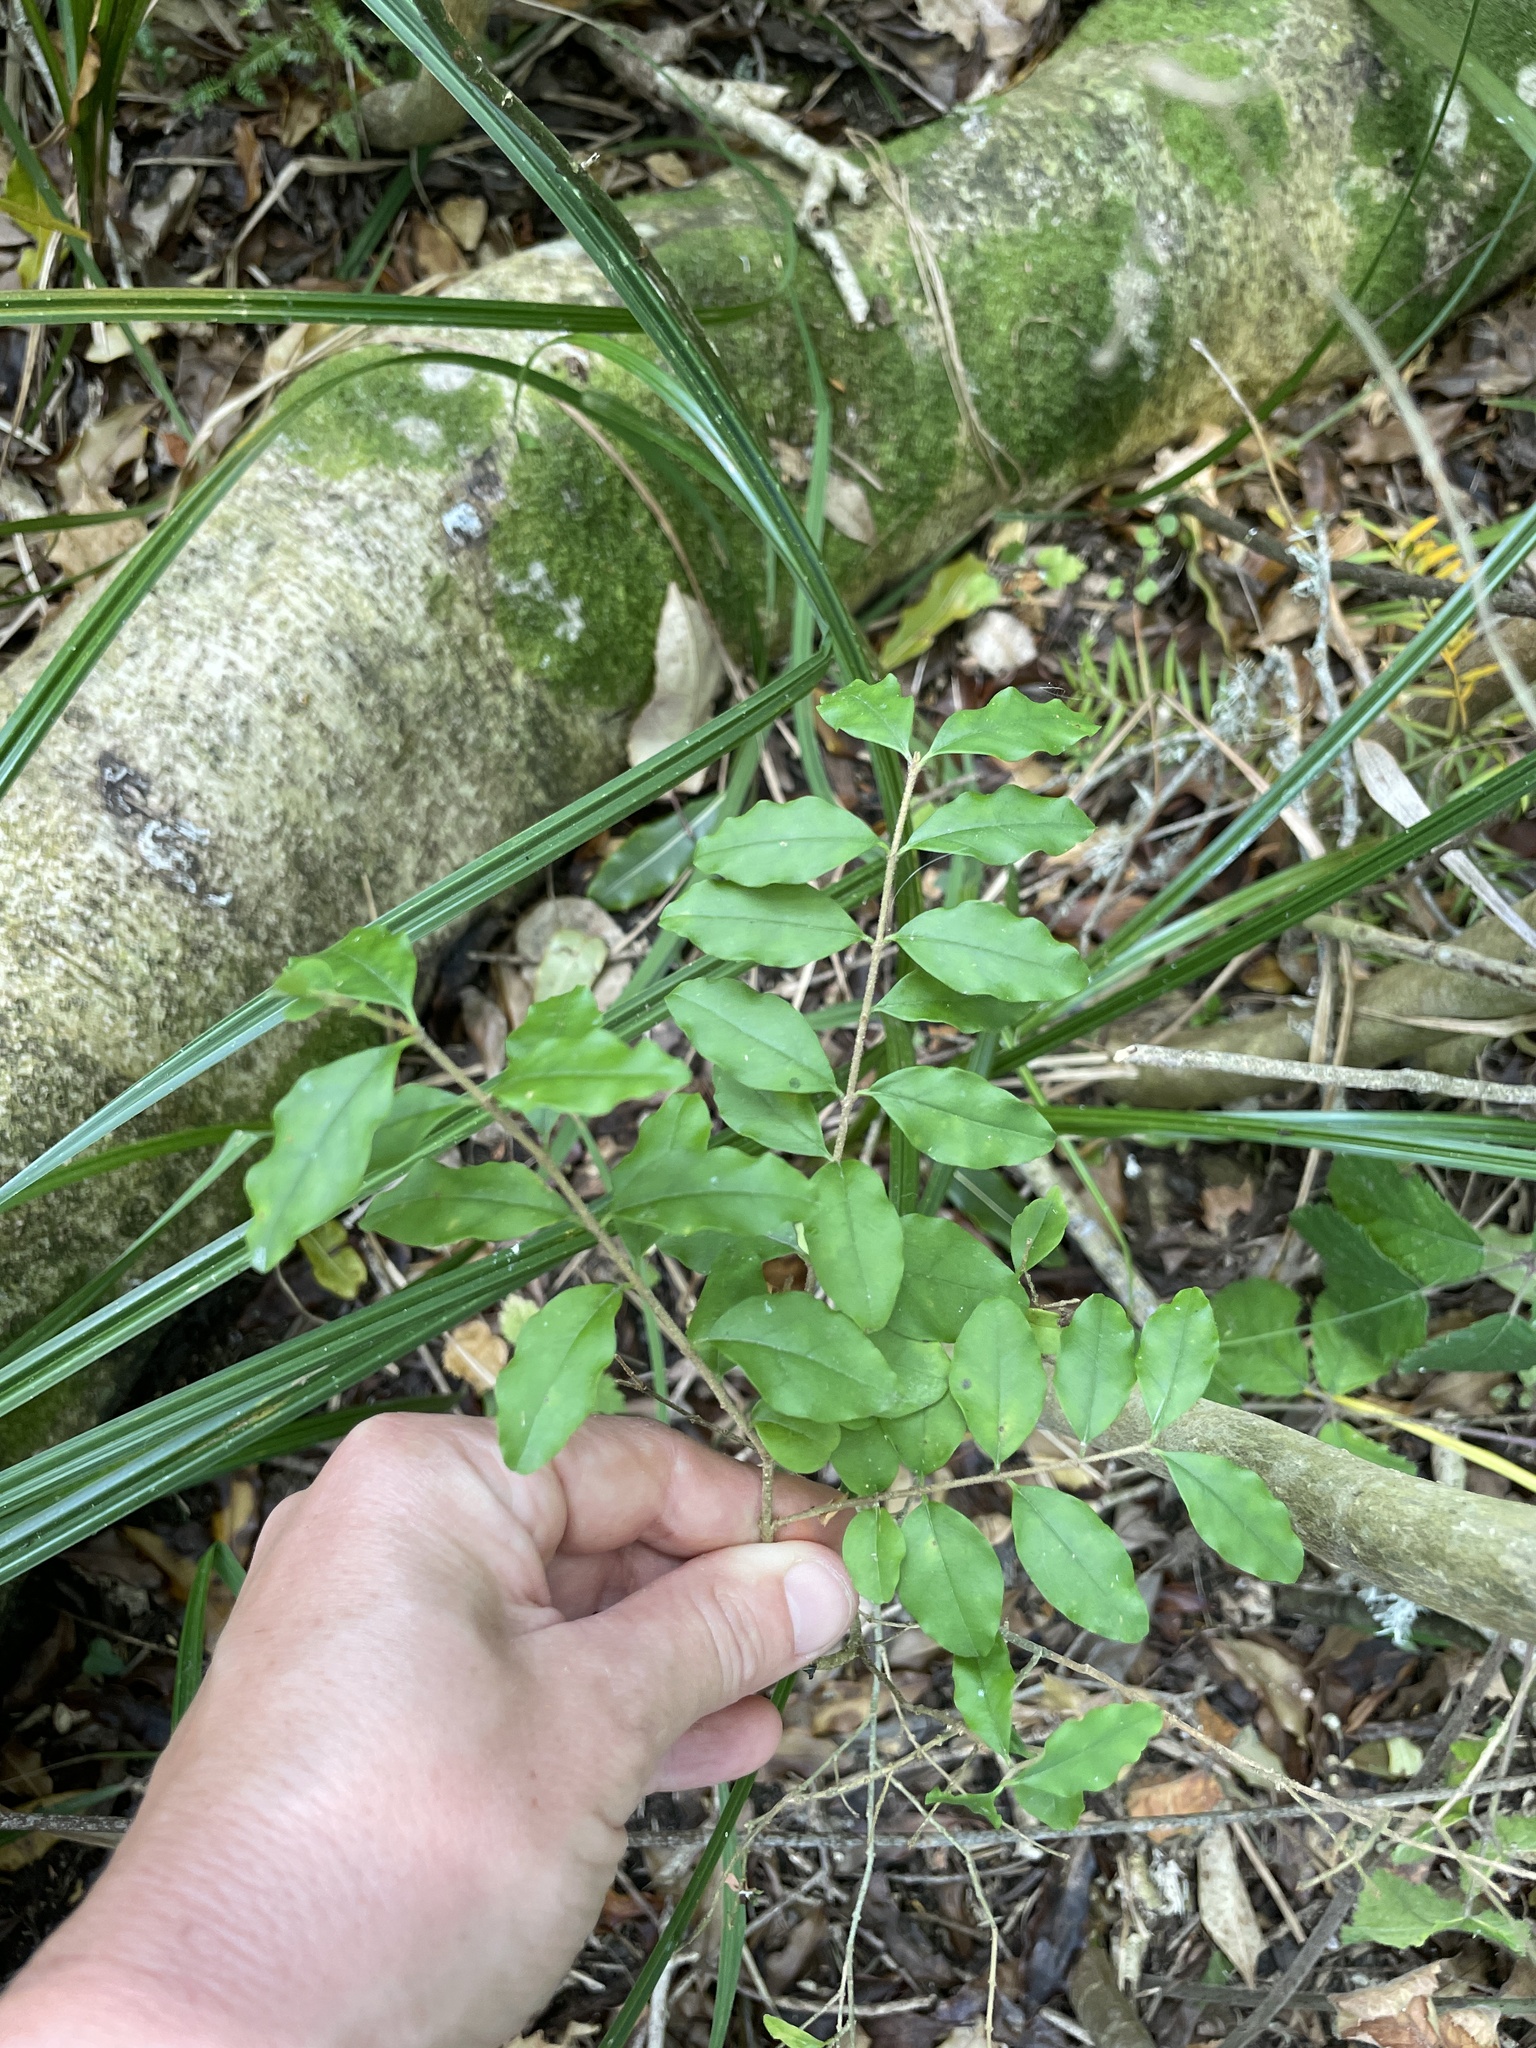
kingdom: Plantae
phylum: Tracheophyta
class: Magnoliopsida
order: Lamiales
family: Oleaceae
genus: Ligustrum
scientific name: Ligustrum sinense
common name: Chinese privet
